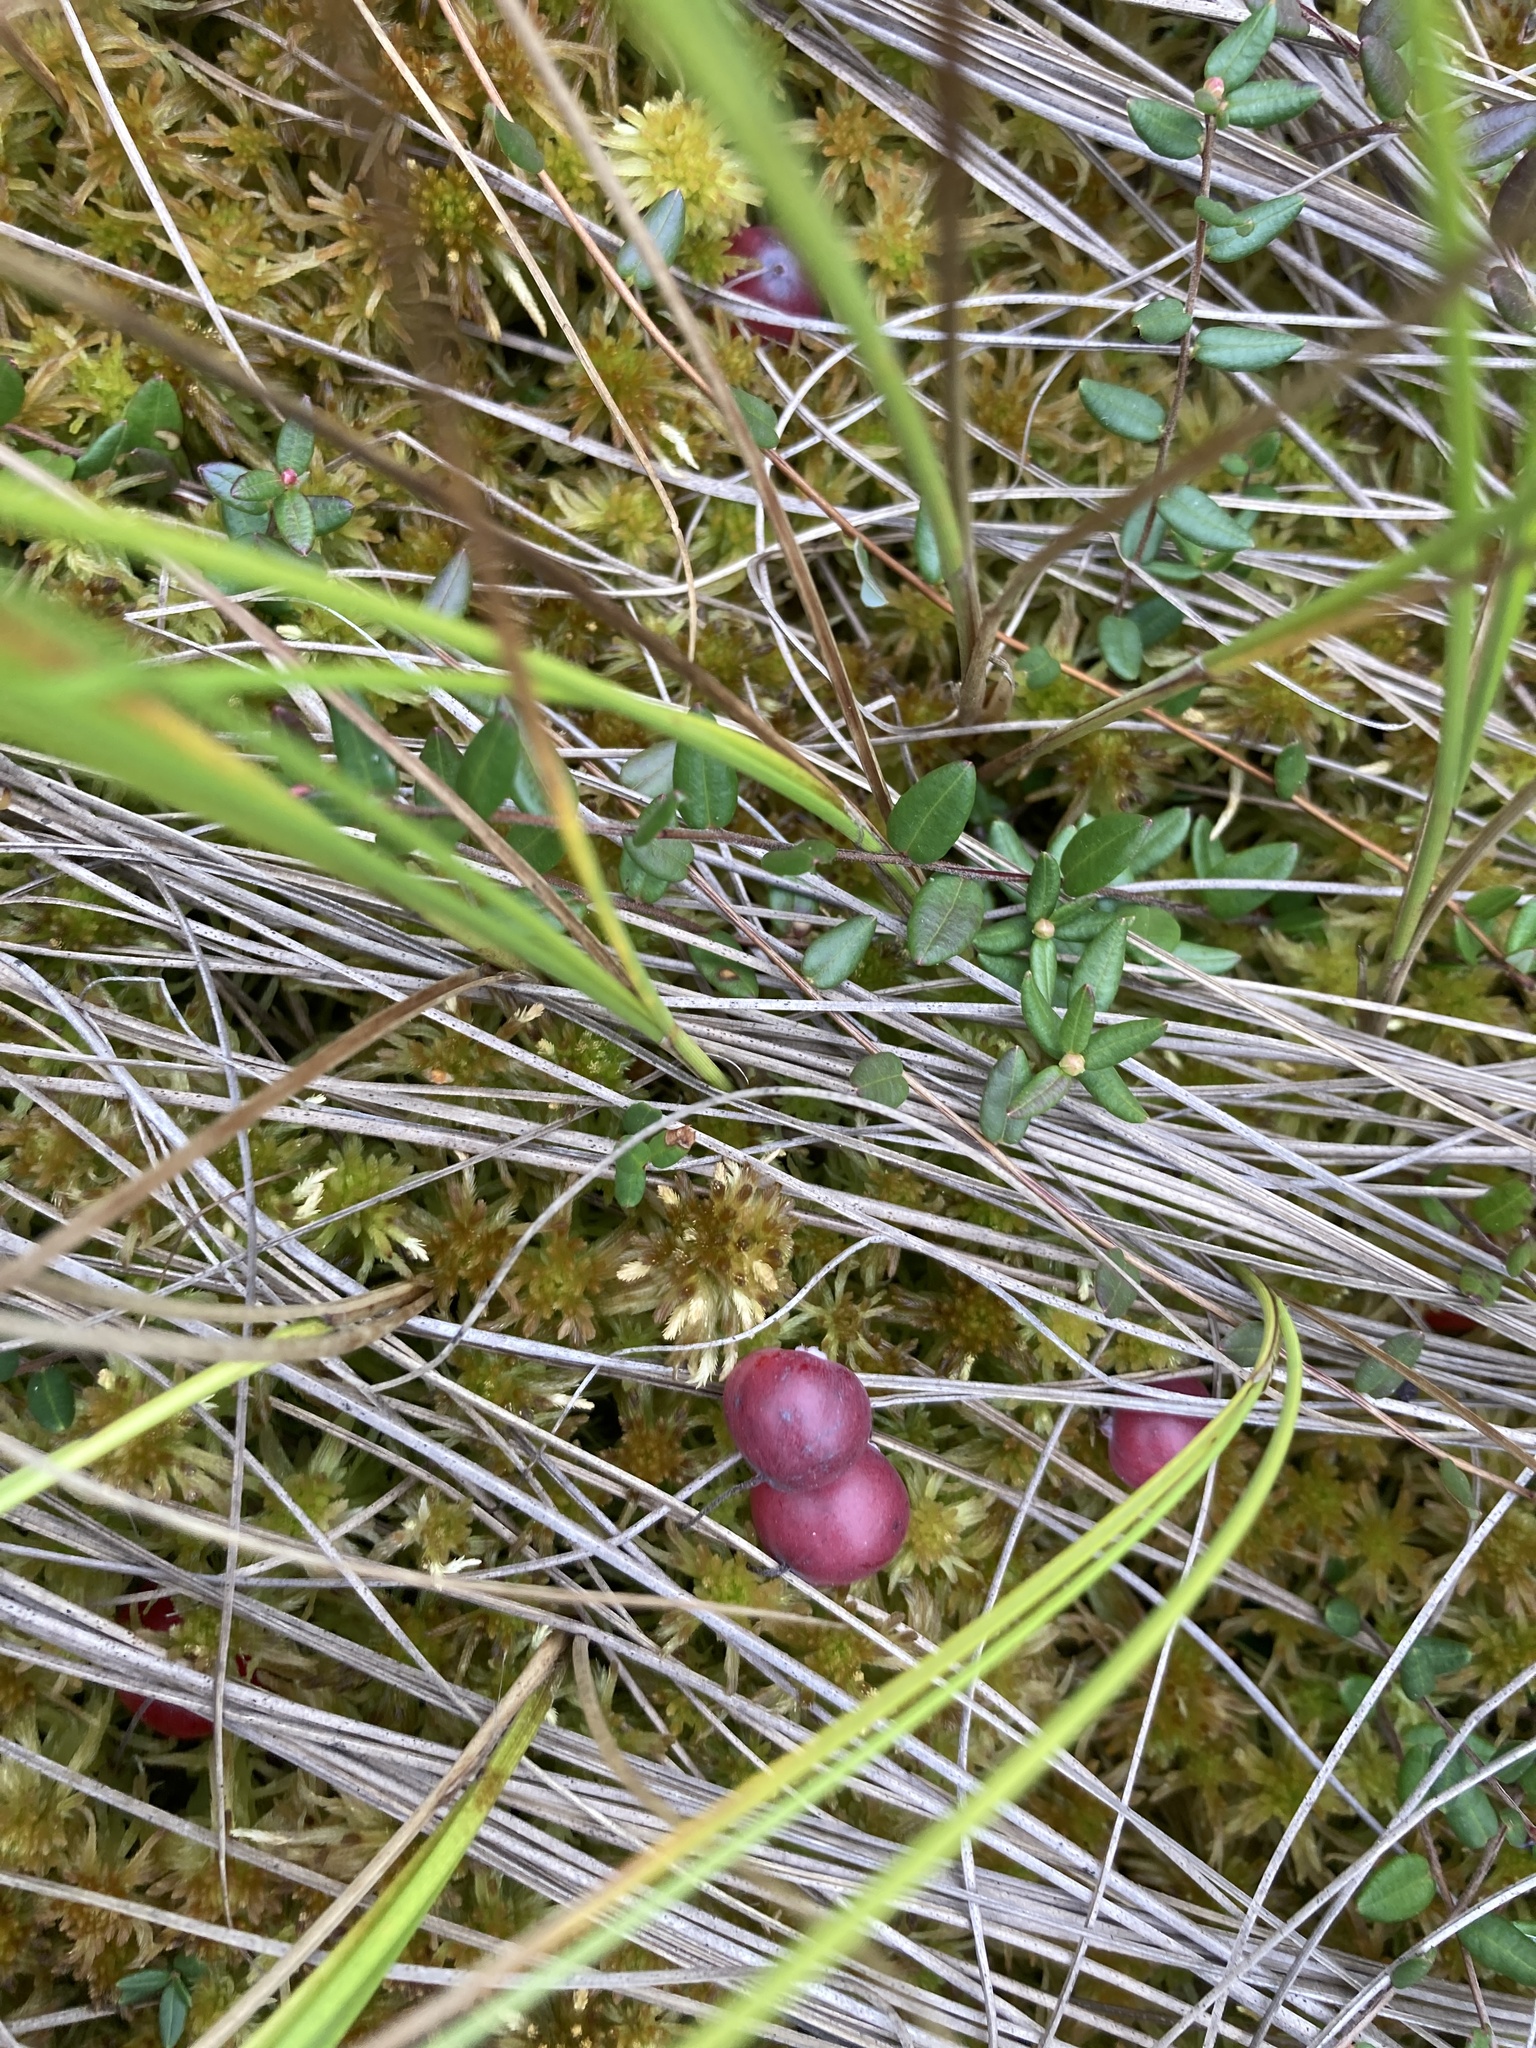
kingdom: Plantae
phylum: Tracheophyta
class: Magnoliopsida
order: Ericales
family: Ericaceae
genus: Vaccinium
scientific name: Vaccinium oxycoccos
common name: Cranberry
